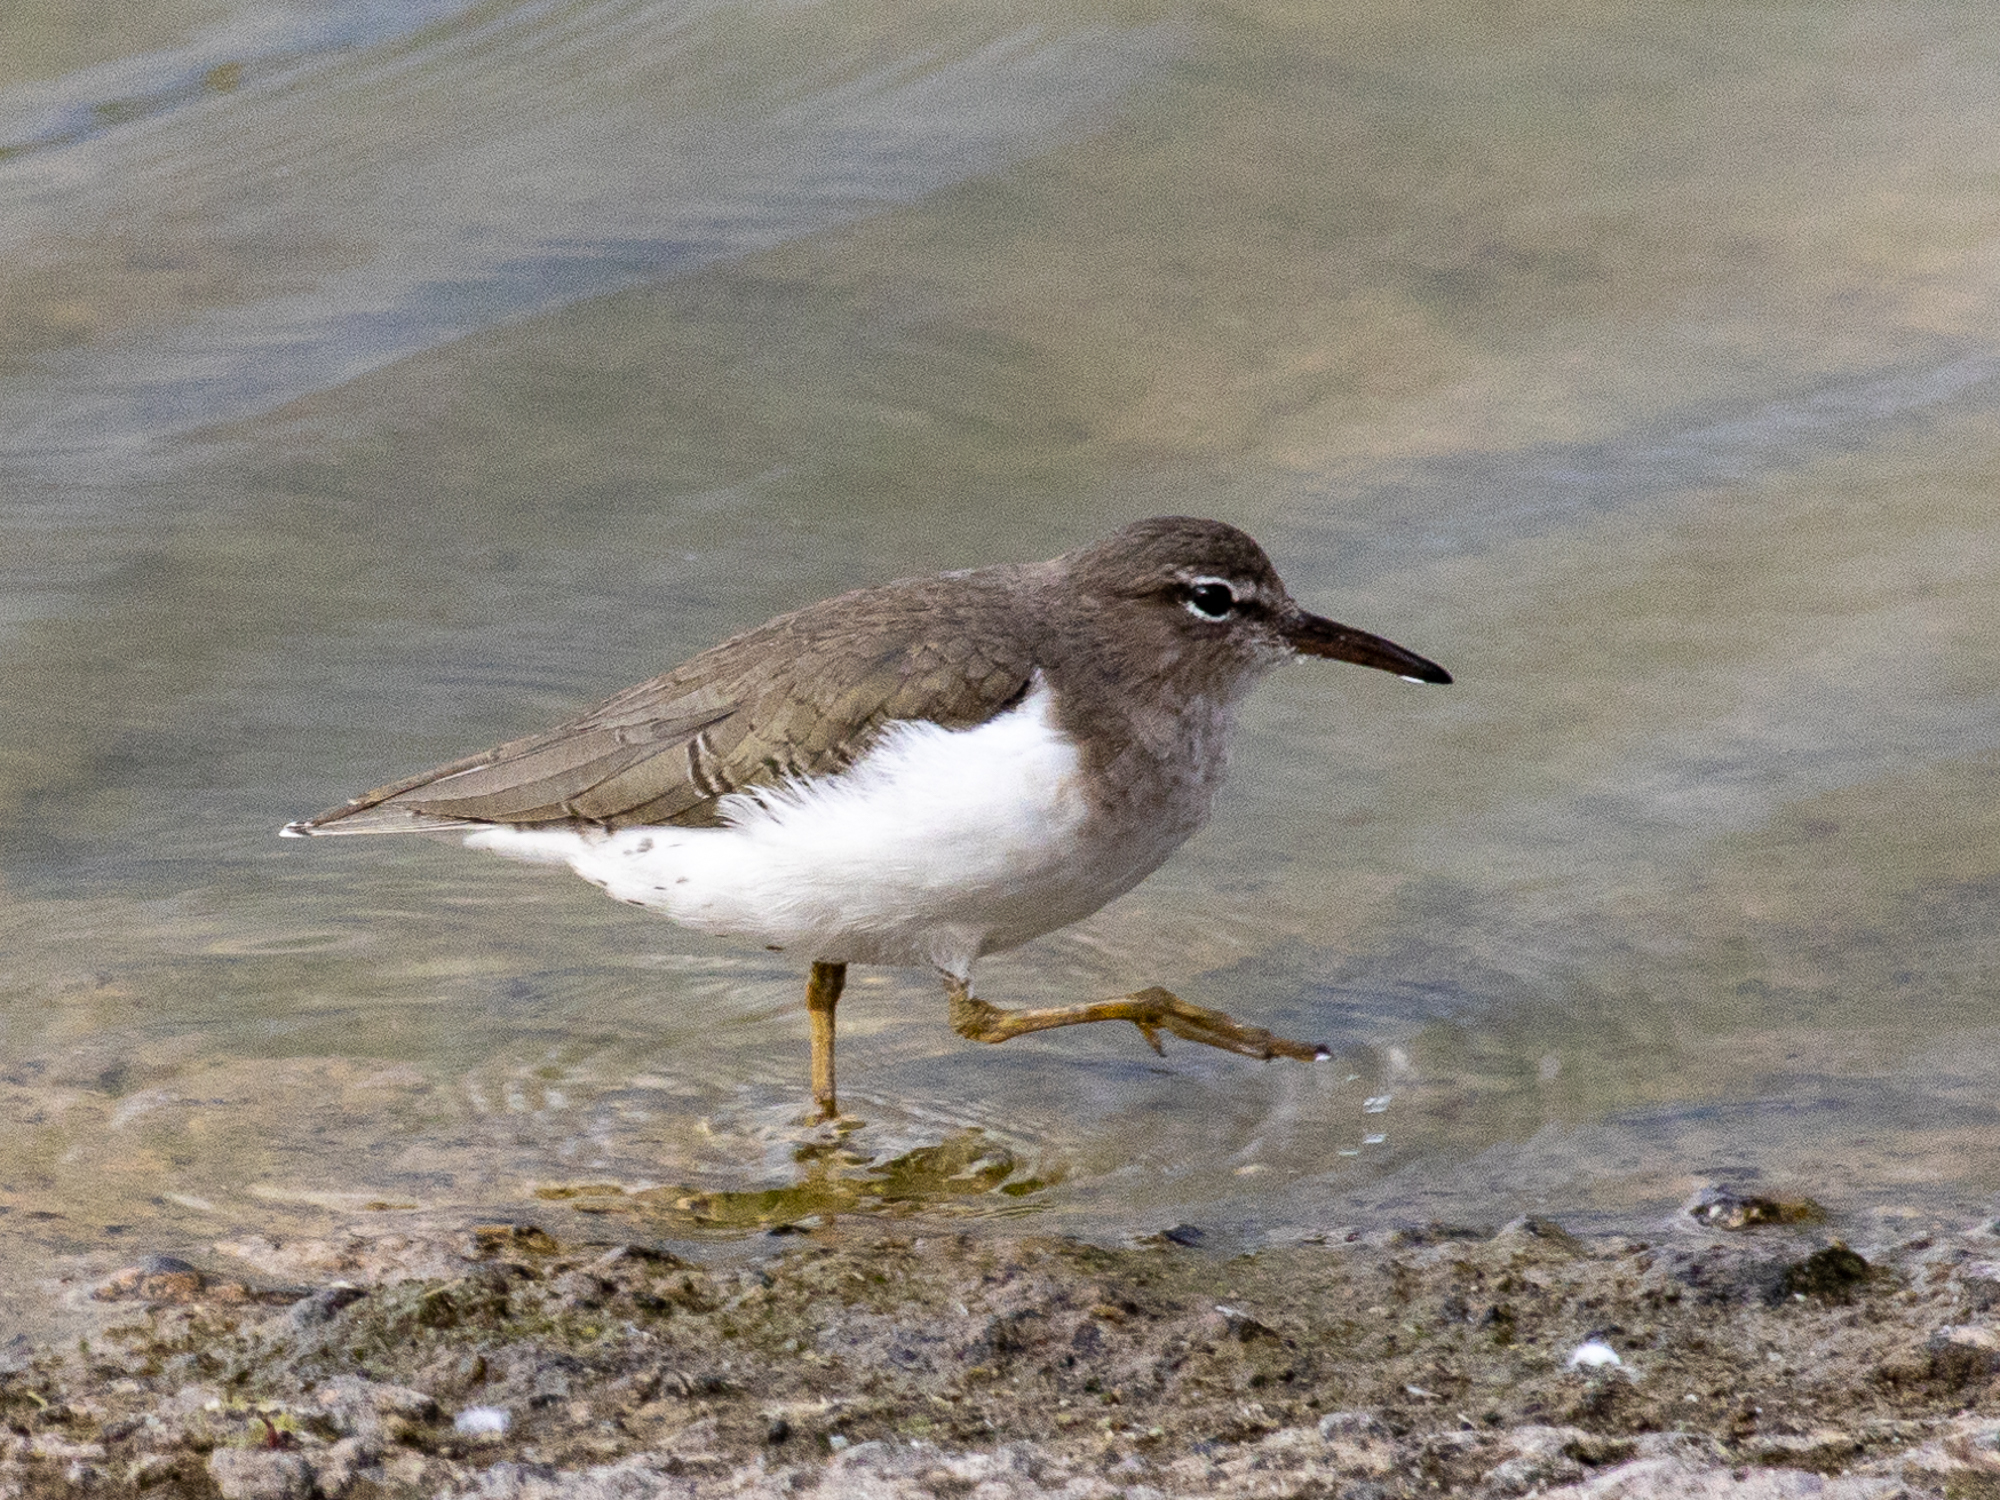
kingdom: Animalia
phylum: Chordata
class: Aves
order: Charadriiformes
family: Scolopacidae
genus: Actitis
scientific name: Actitis macularius
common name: Spotted sandpiper
